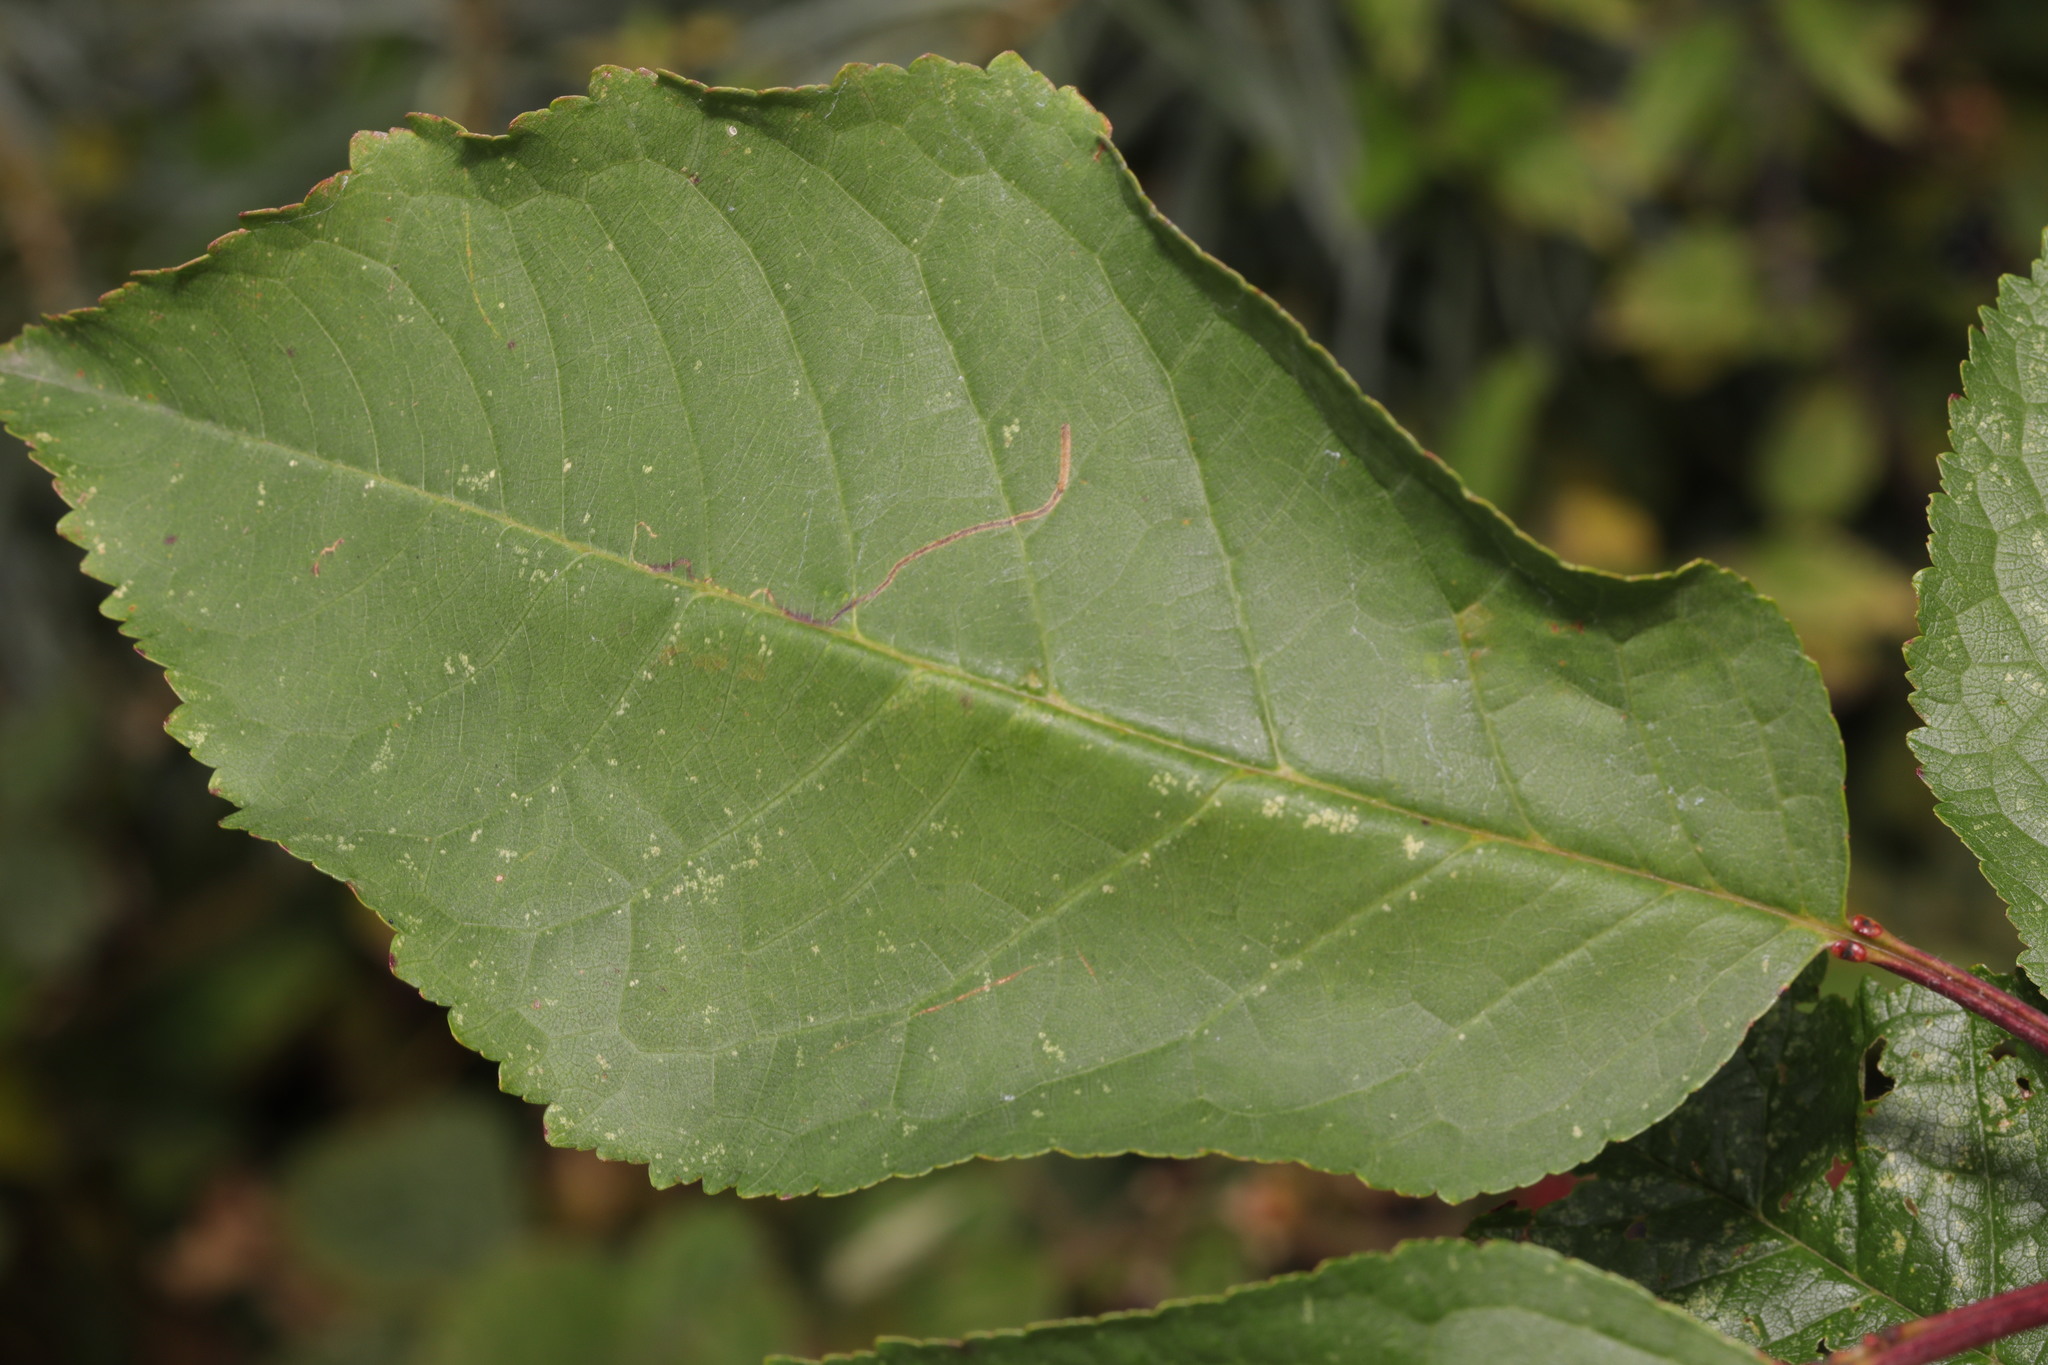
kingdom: Plantae
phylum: Tracheophyta
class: Magnoliopsida
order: Rosales
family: Rosaceae
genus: Prunus
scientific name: Prunus avium
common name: Sweet cherry
